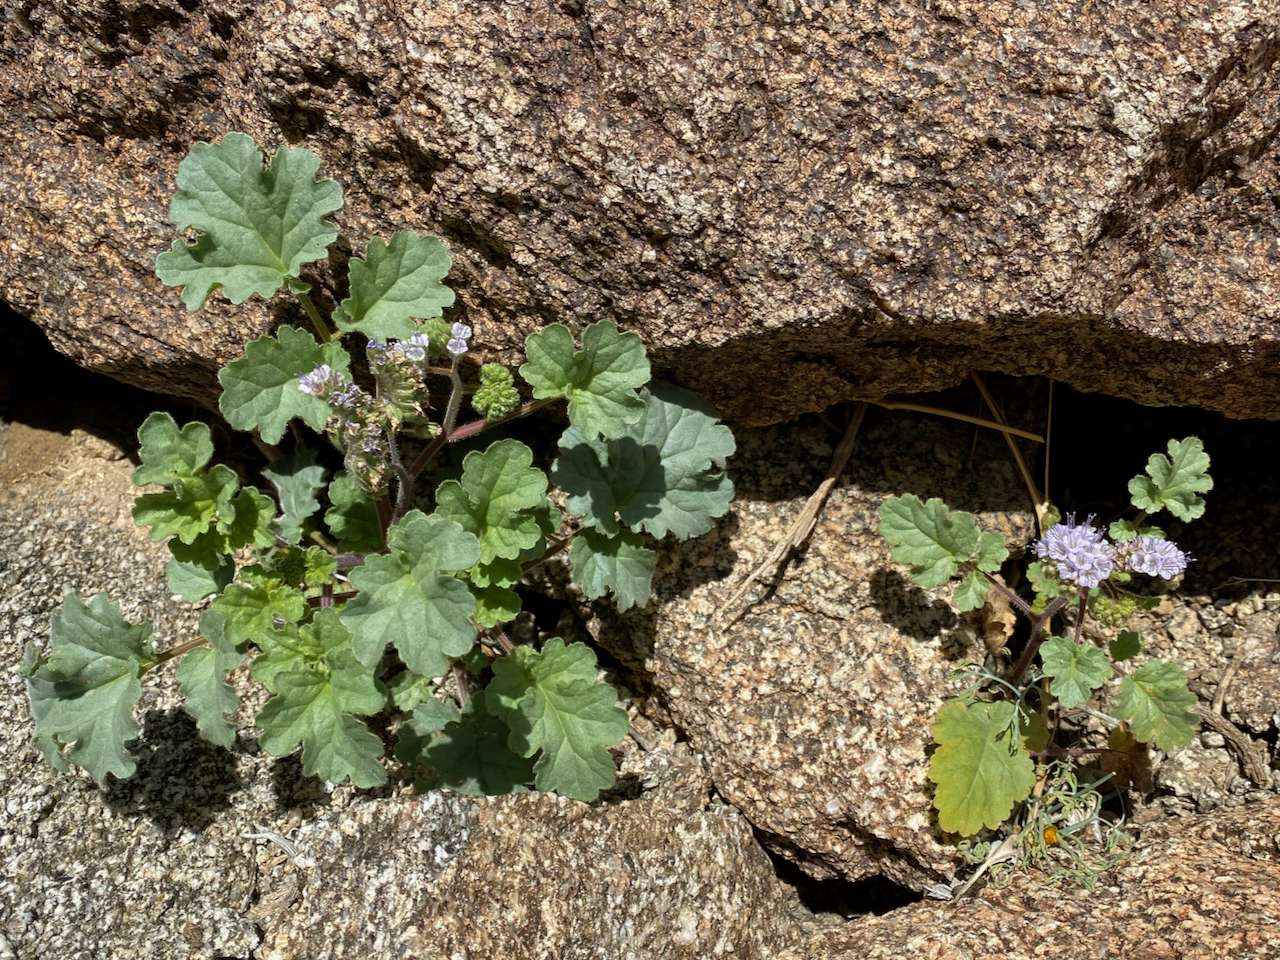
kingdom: Plantae
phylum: Tracheophyta
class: Magnoliopsida
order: Boraginales
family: Hydrophyllaceae
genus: Phacelia
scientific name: Phacelia pedicellata
